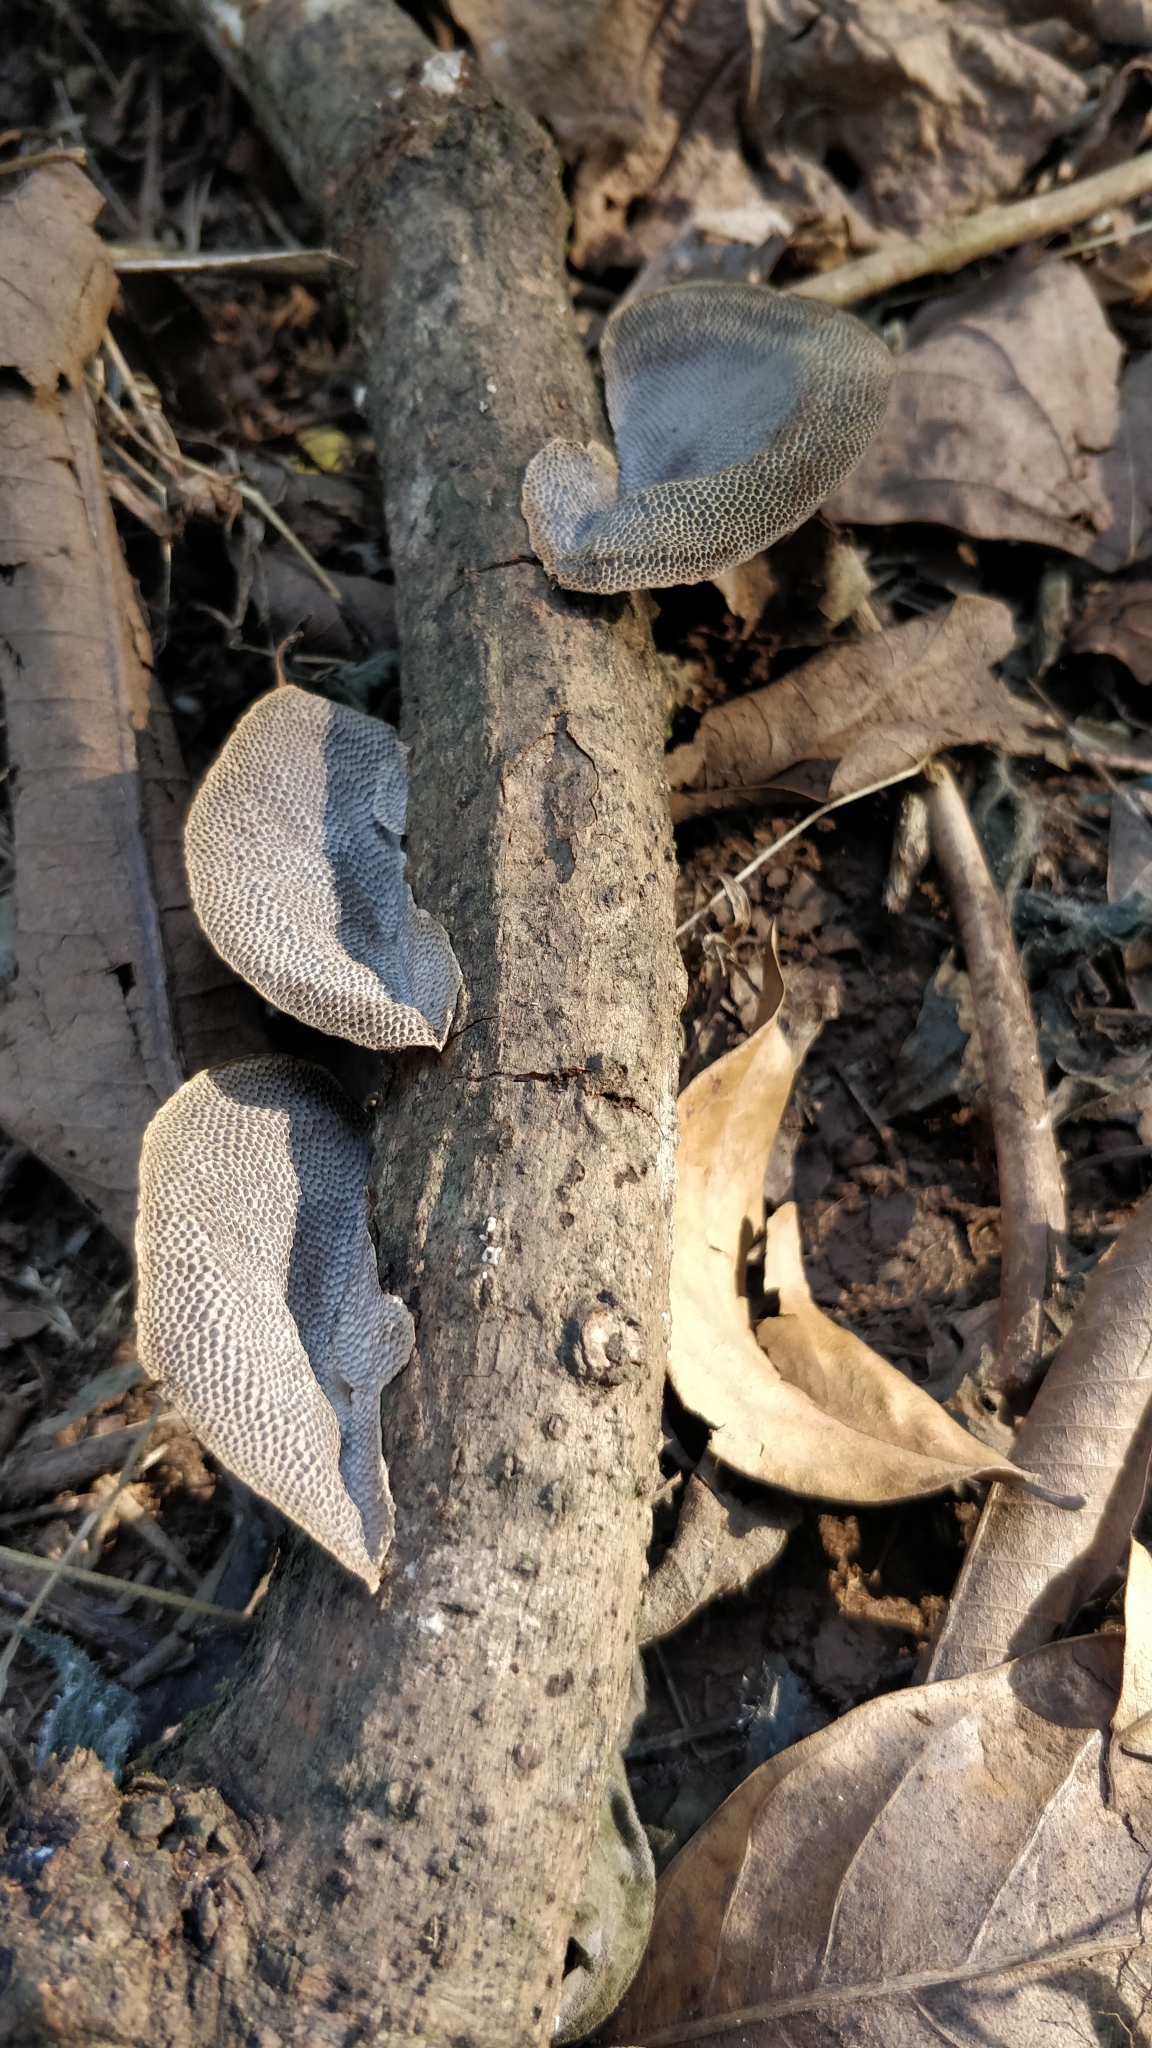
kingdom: Fungi
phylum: Basidiomycota
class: Agaricomycetes
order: Polyporales
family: Polyporaceae
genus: Pseudofavolus
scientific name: Pseudofavolus tenuis
